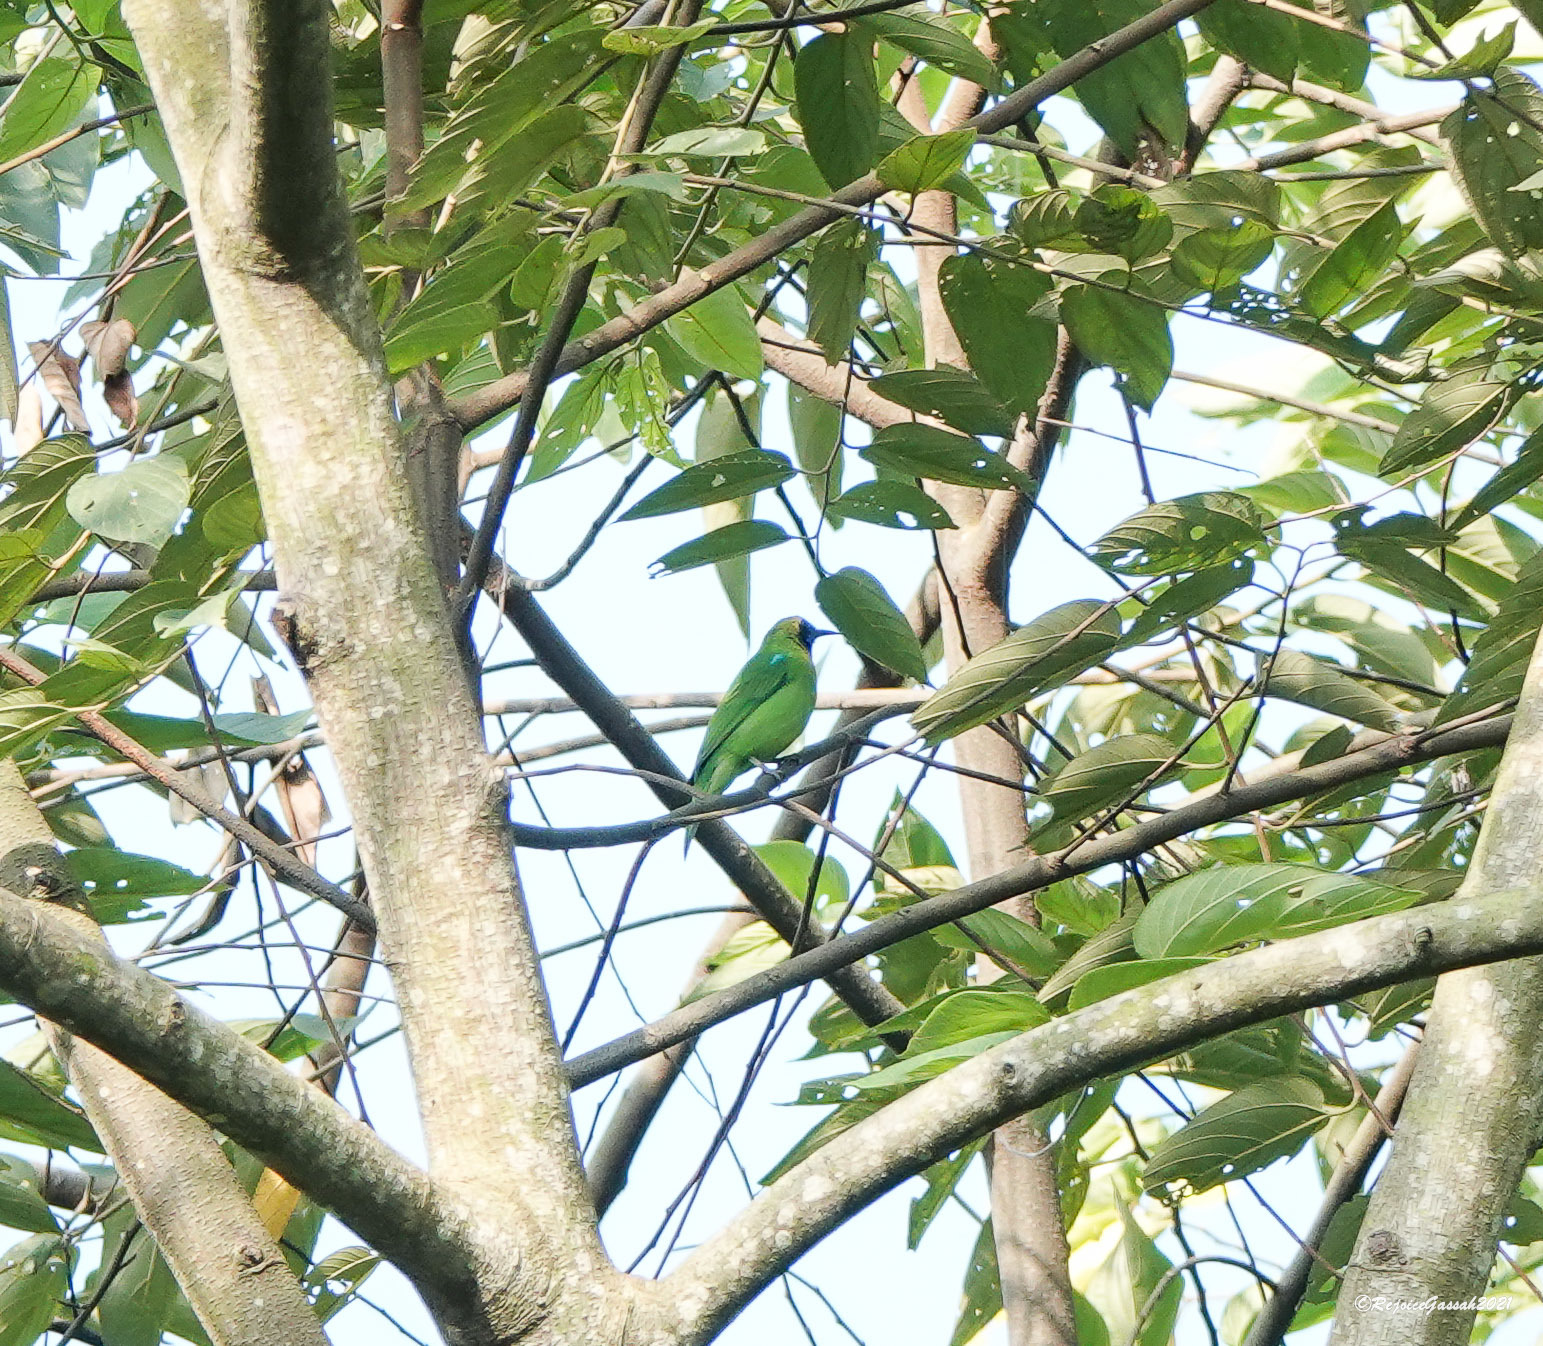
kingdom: Animalia
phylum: Chordata
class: Aves
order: Passeriformes
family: Chloropseidae
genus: Chloropsis
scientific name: Chloropsis aurifrons
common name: Golden-fronted leafbird
